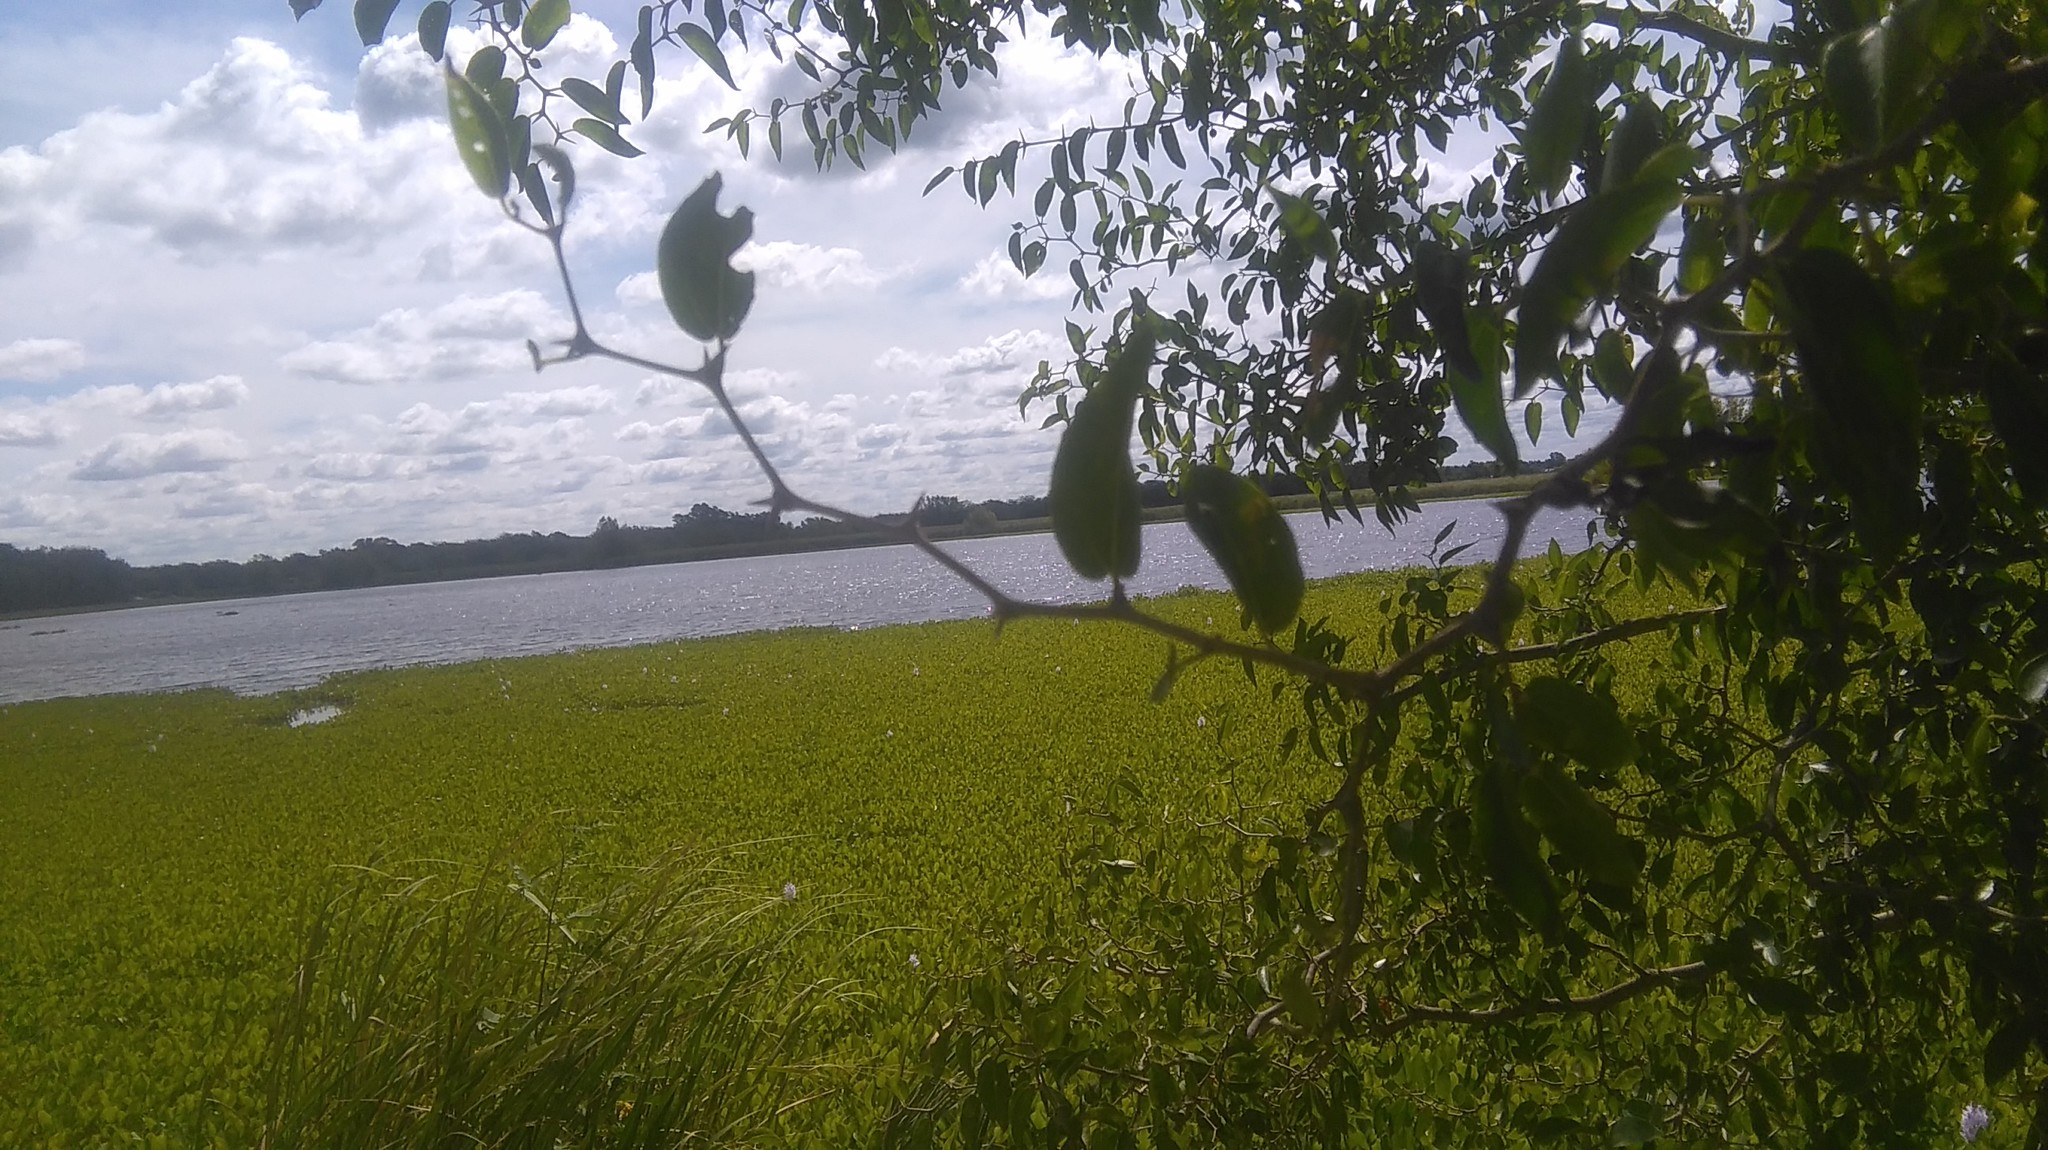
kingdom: Plantae
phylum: Tracheophyta
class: Magnoliopsida
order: Rosales
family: Cannabaceae
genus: Celtis
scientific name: Celtis tala
